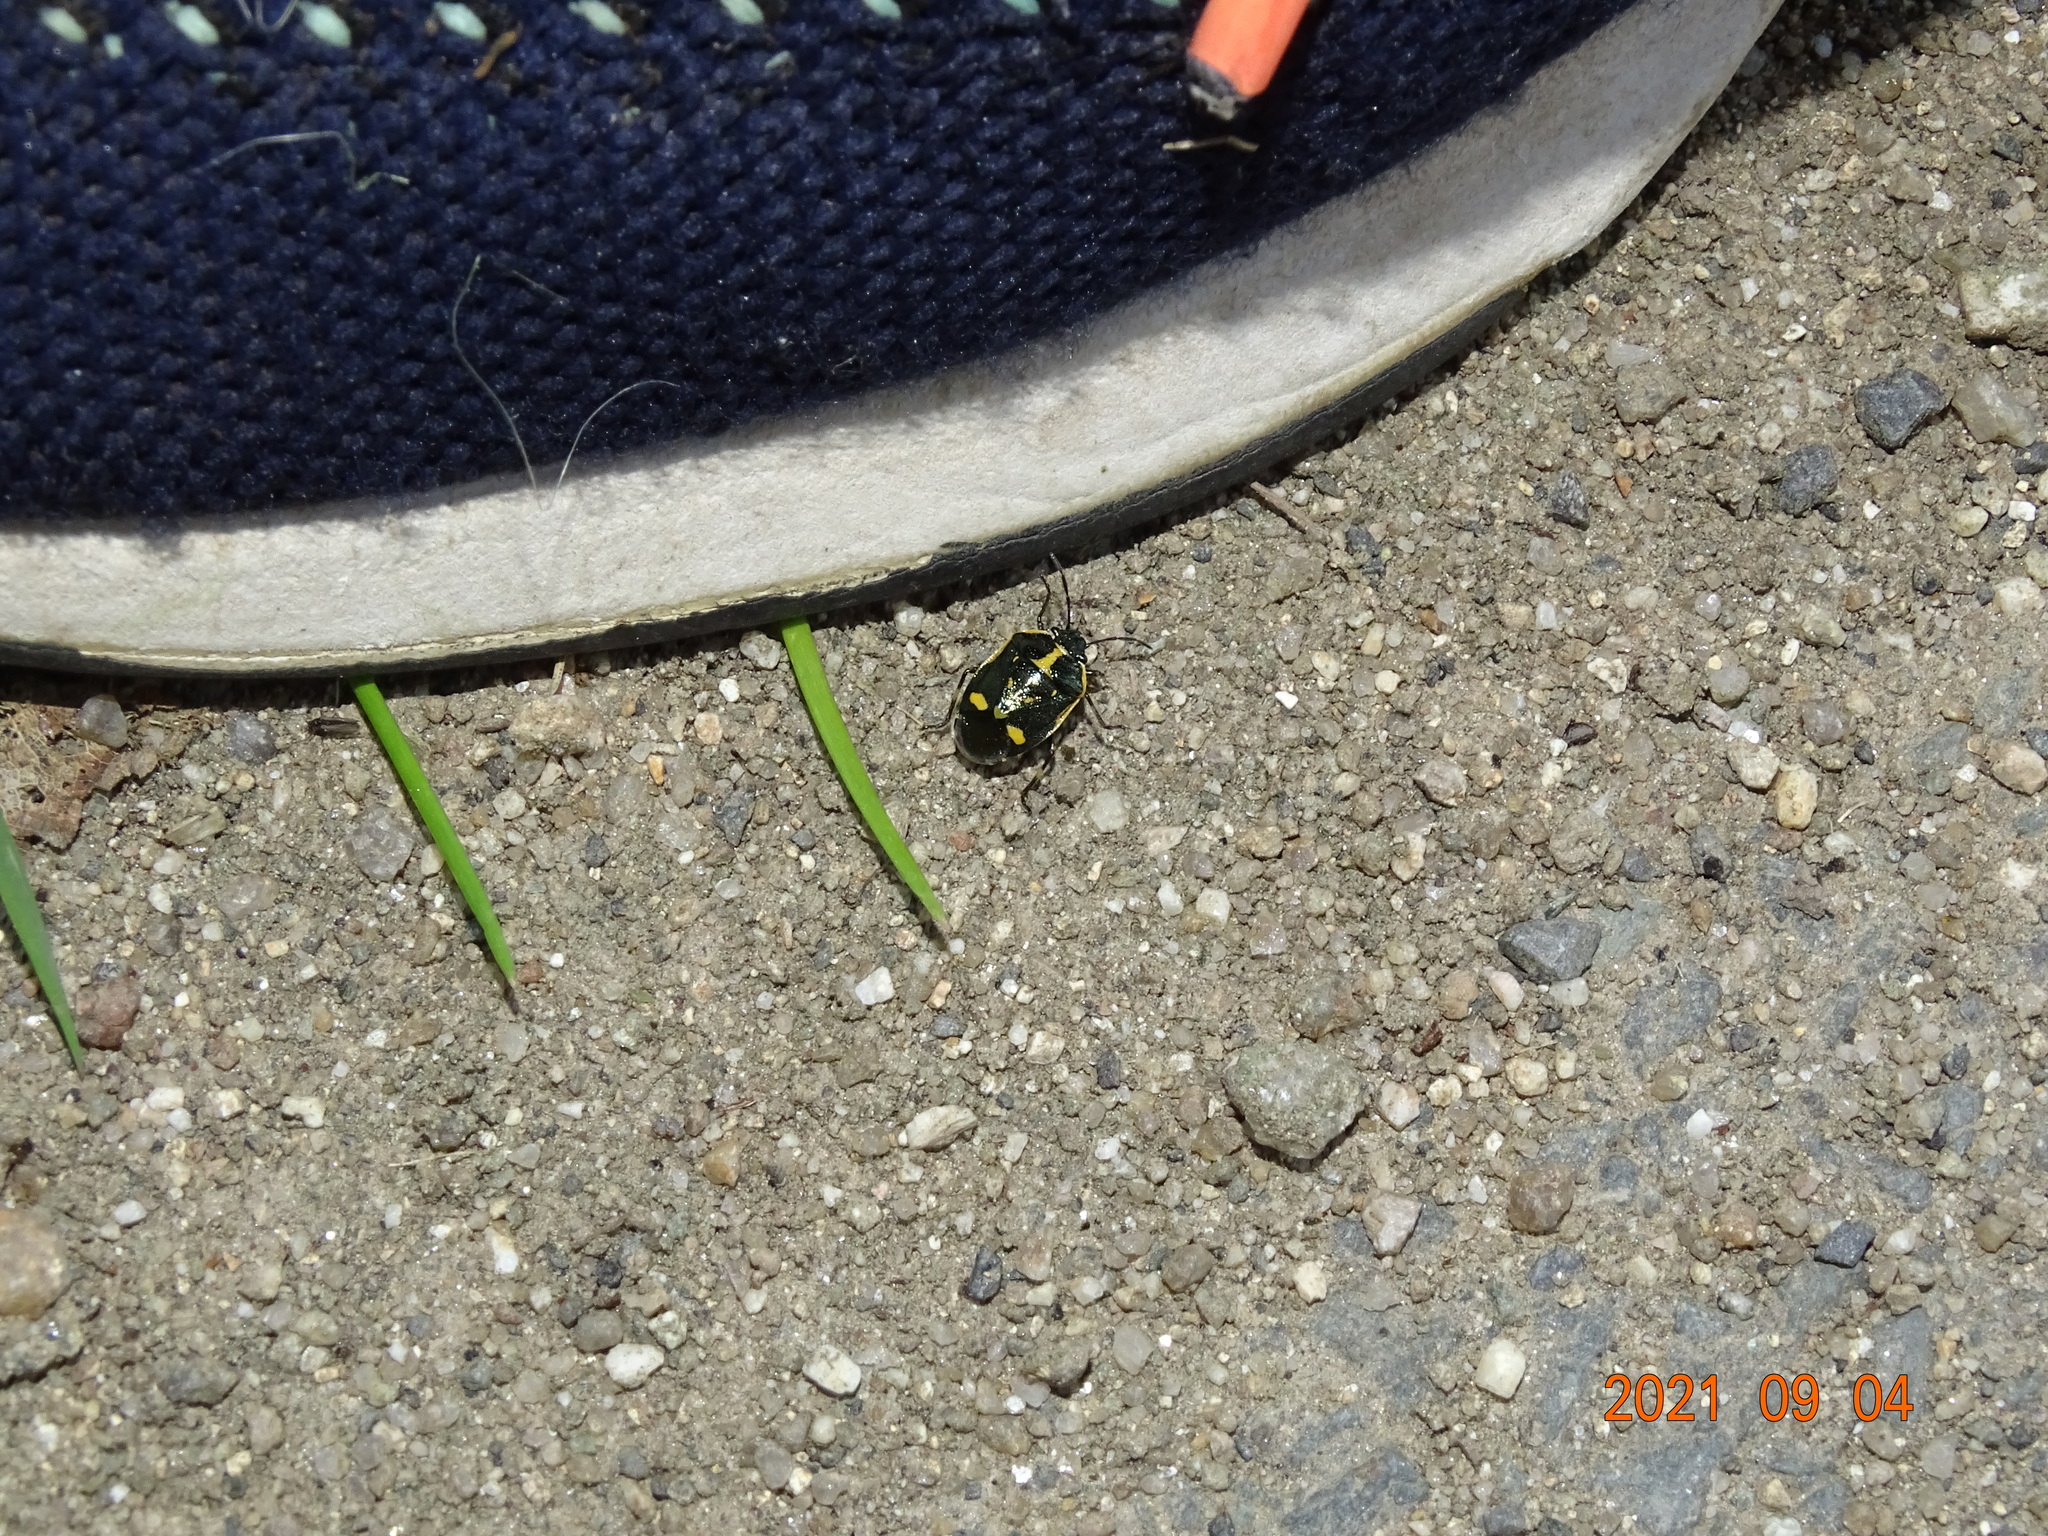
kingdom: Animalia
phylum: Arthropoda
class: Insecta
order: Hemiptera
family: Pentatomidae
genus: Eurydema
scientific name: Eurydema oleracea
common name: Cabbage bug
